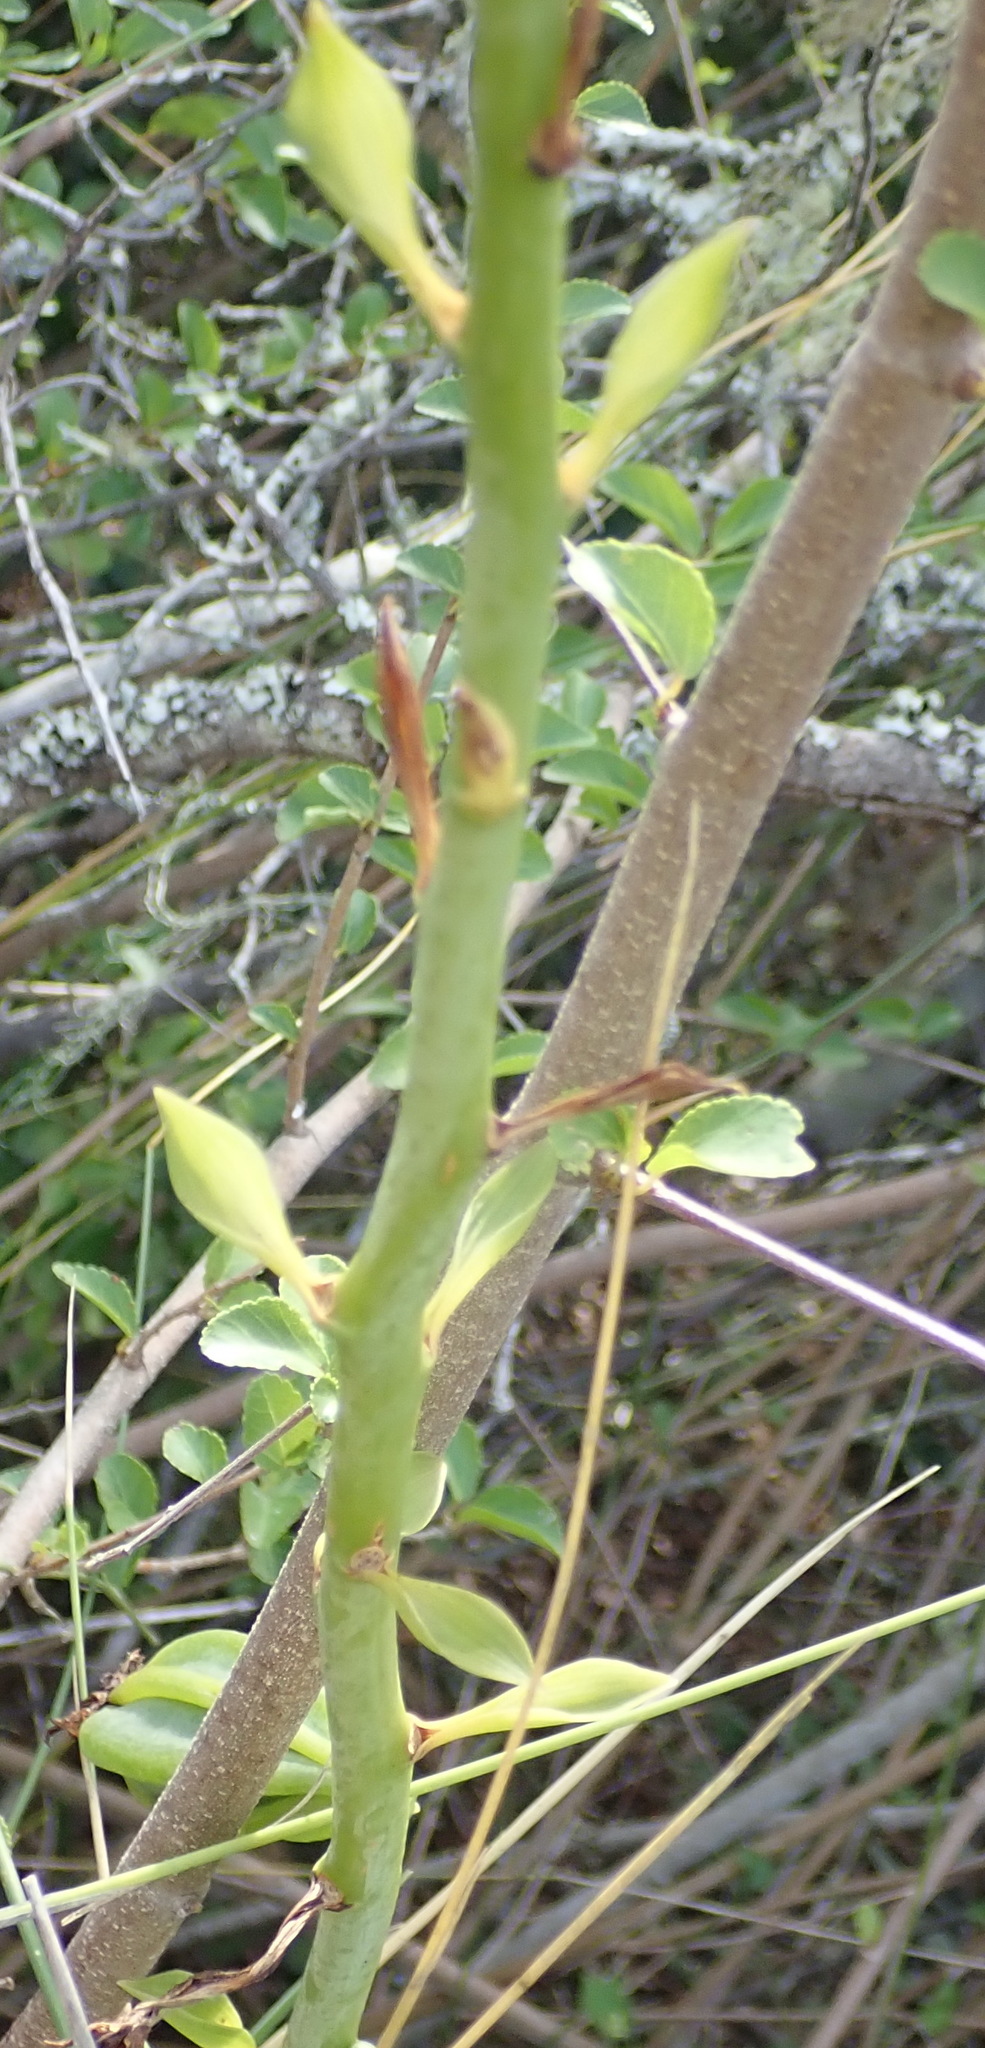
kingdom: Plantae
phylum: Tracheophyta
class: Liliopsida
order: Asparagales
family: Orchidaceae
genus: Eulophia
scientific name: Eulophia speciosa
